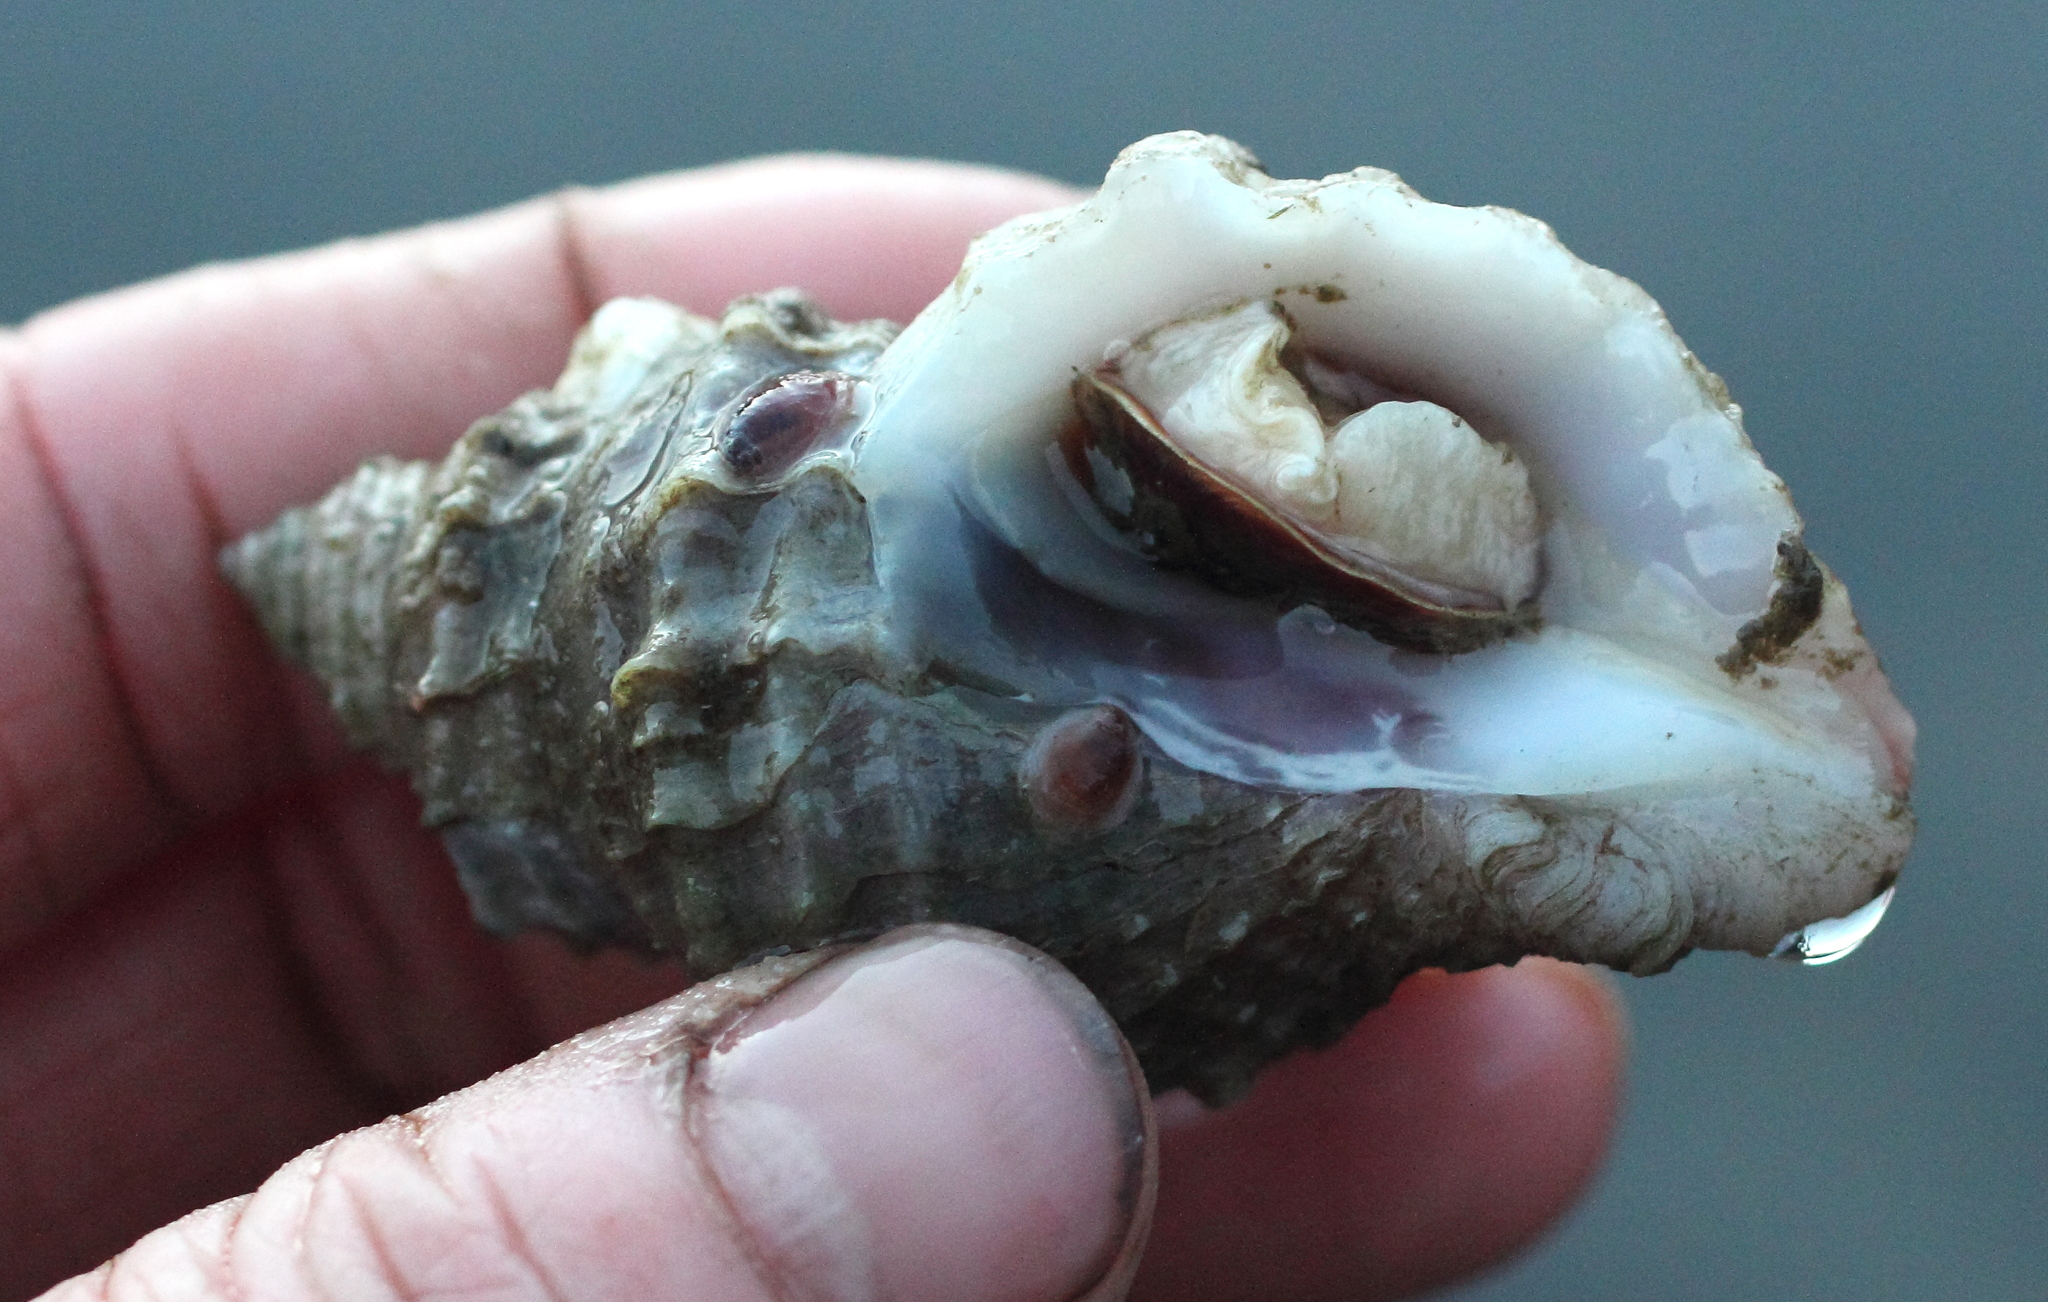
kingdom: Animalia
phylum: Mollusca
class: Gastropoda
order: Neogastropoda
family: Muricidae
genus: Nucella
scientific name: Nucella lamellosa
